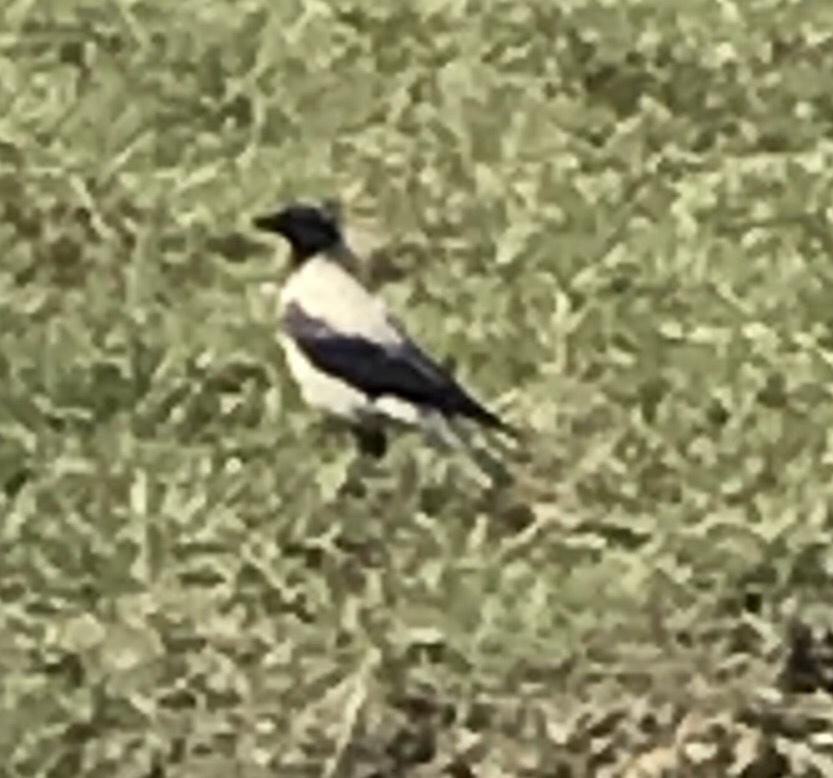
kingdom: Animalia
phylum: Chordata
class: Aves
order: Passeriformes
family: Corvidae
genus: Corvus
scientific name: Corvus cornix
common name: Hooded crow
